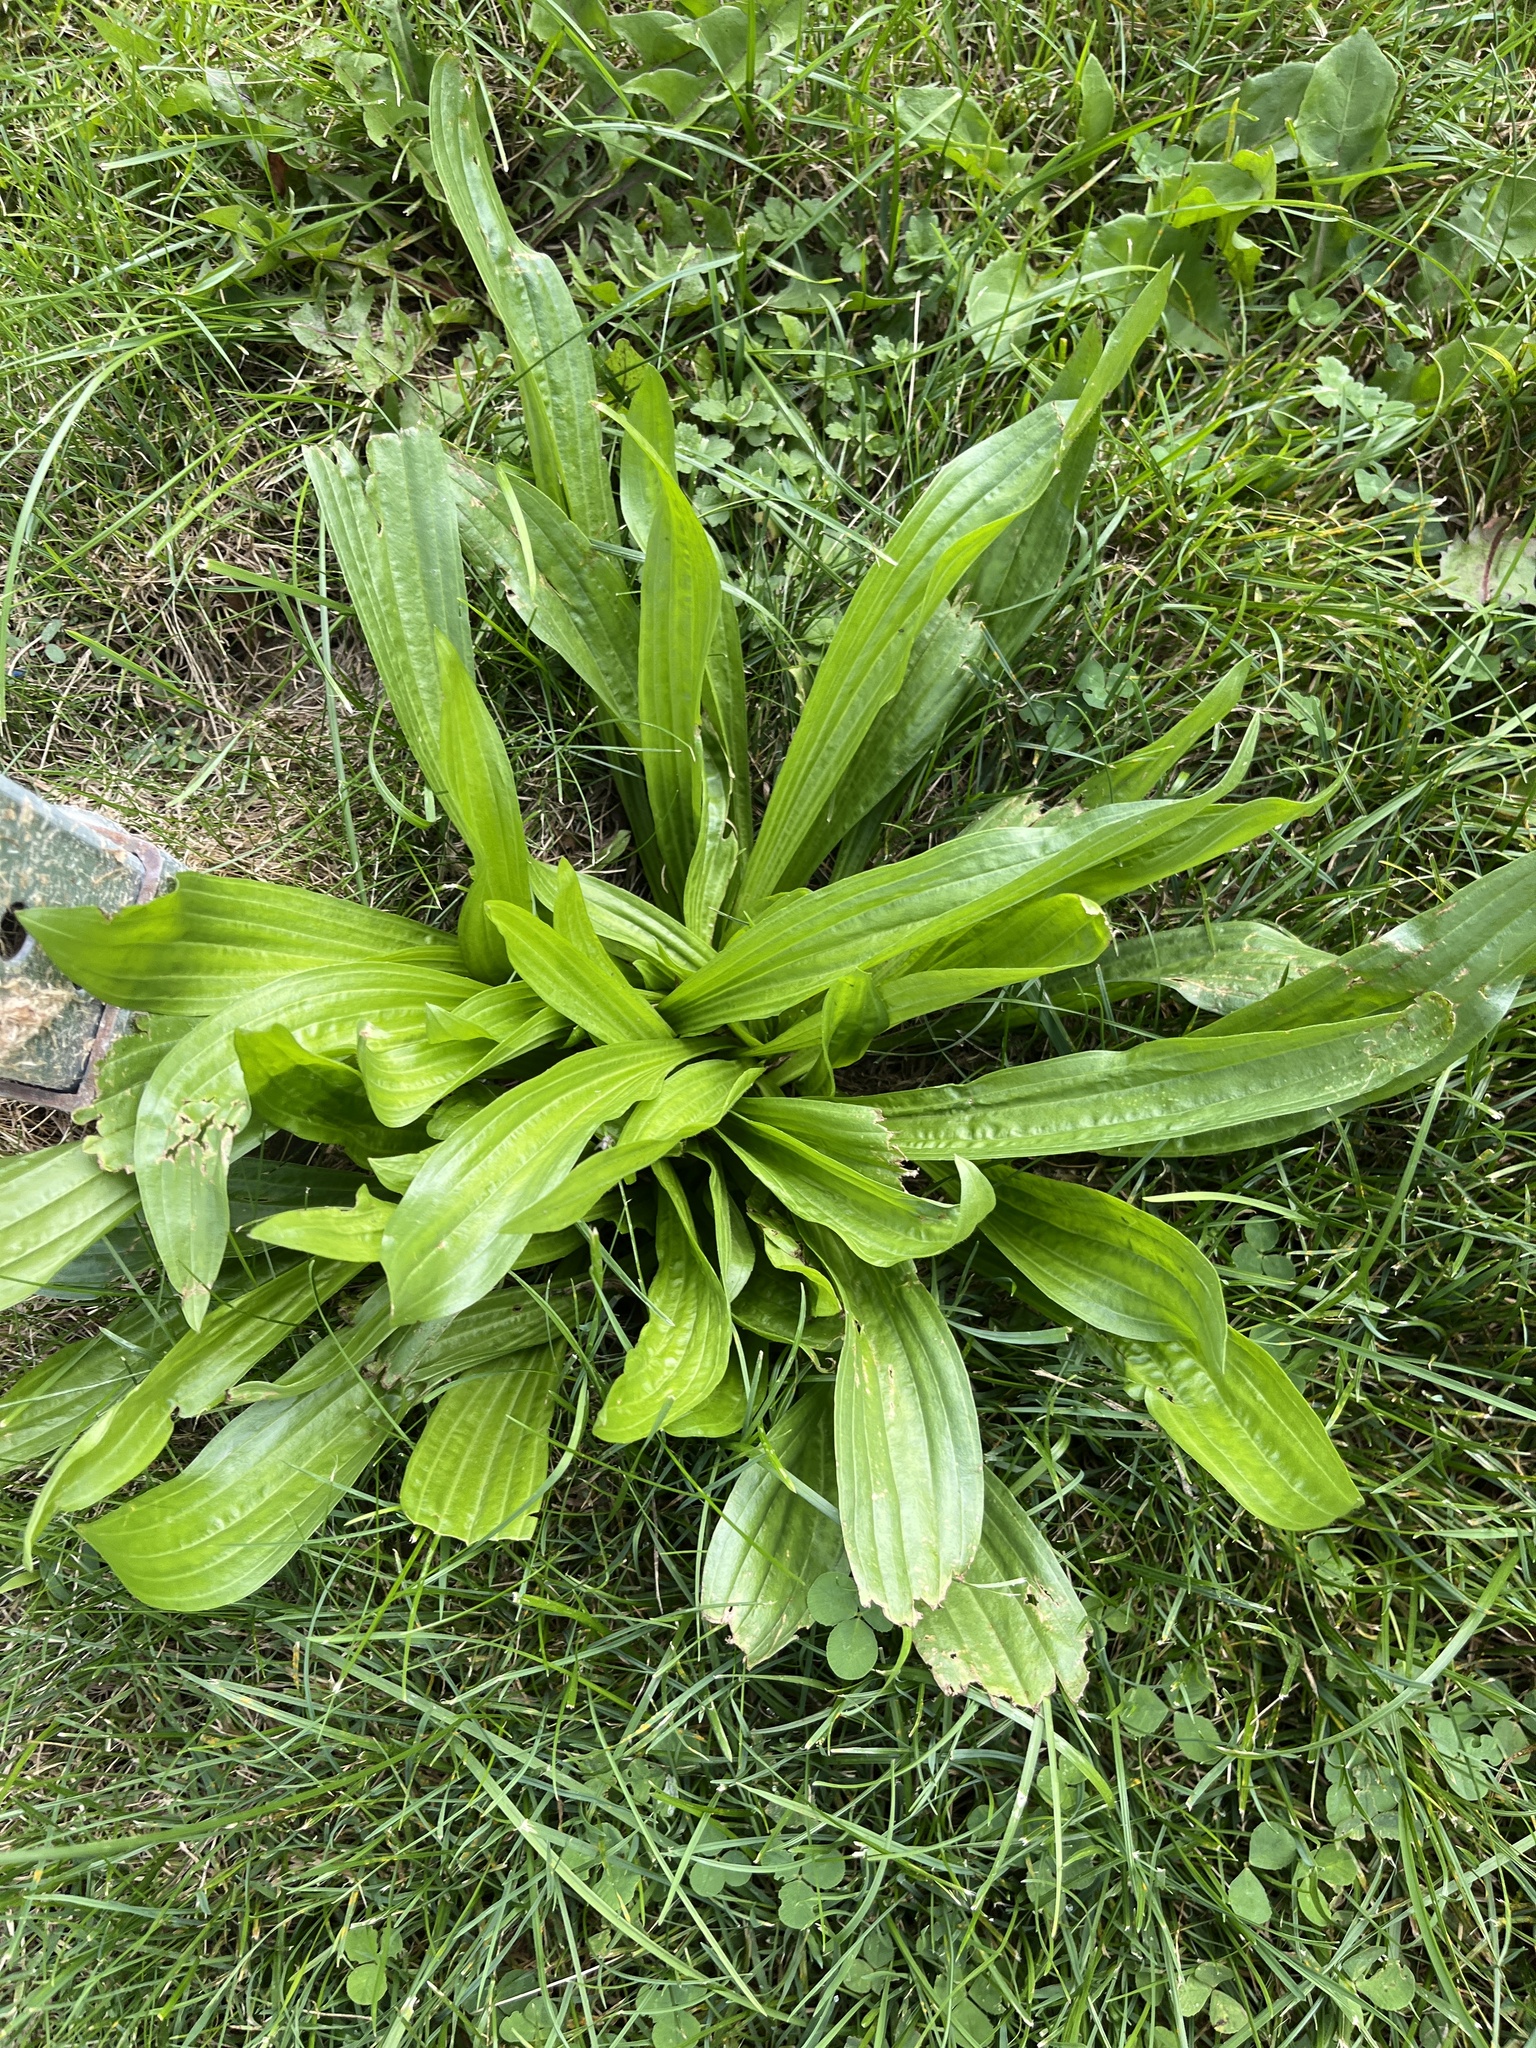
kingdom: Plantae
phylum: Tracheophyta
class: Magnoliopsida
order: Lamiales
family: Plantaginaceae
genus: Plantago
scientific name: Plantago lanceolata
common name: Ribwort plantain
